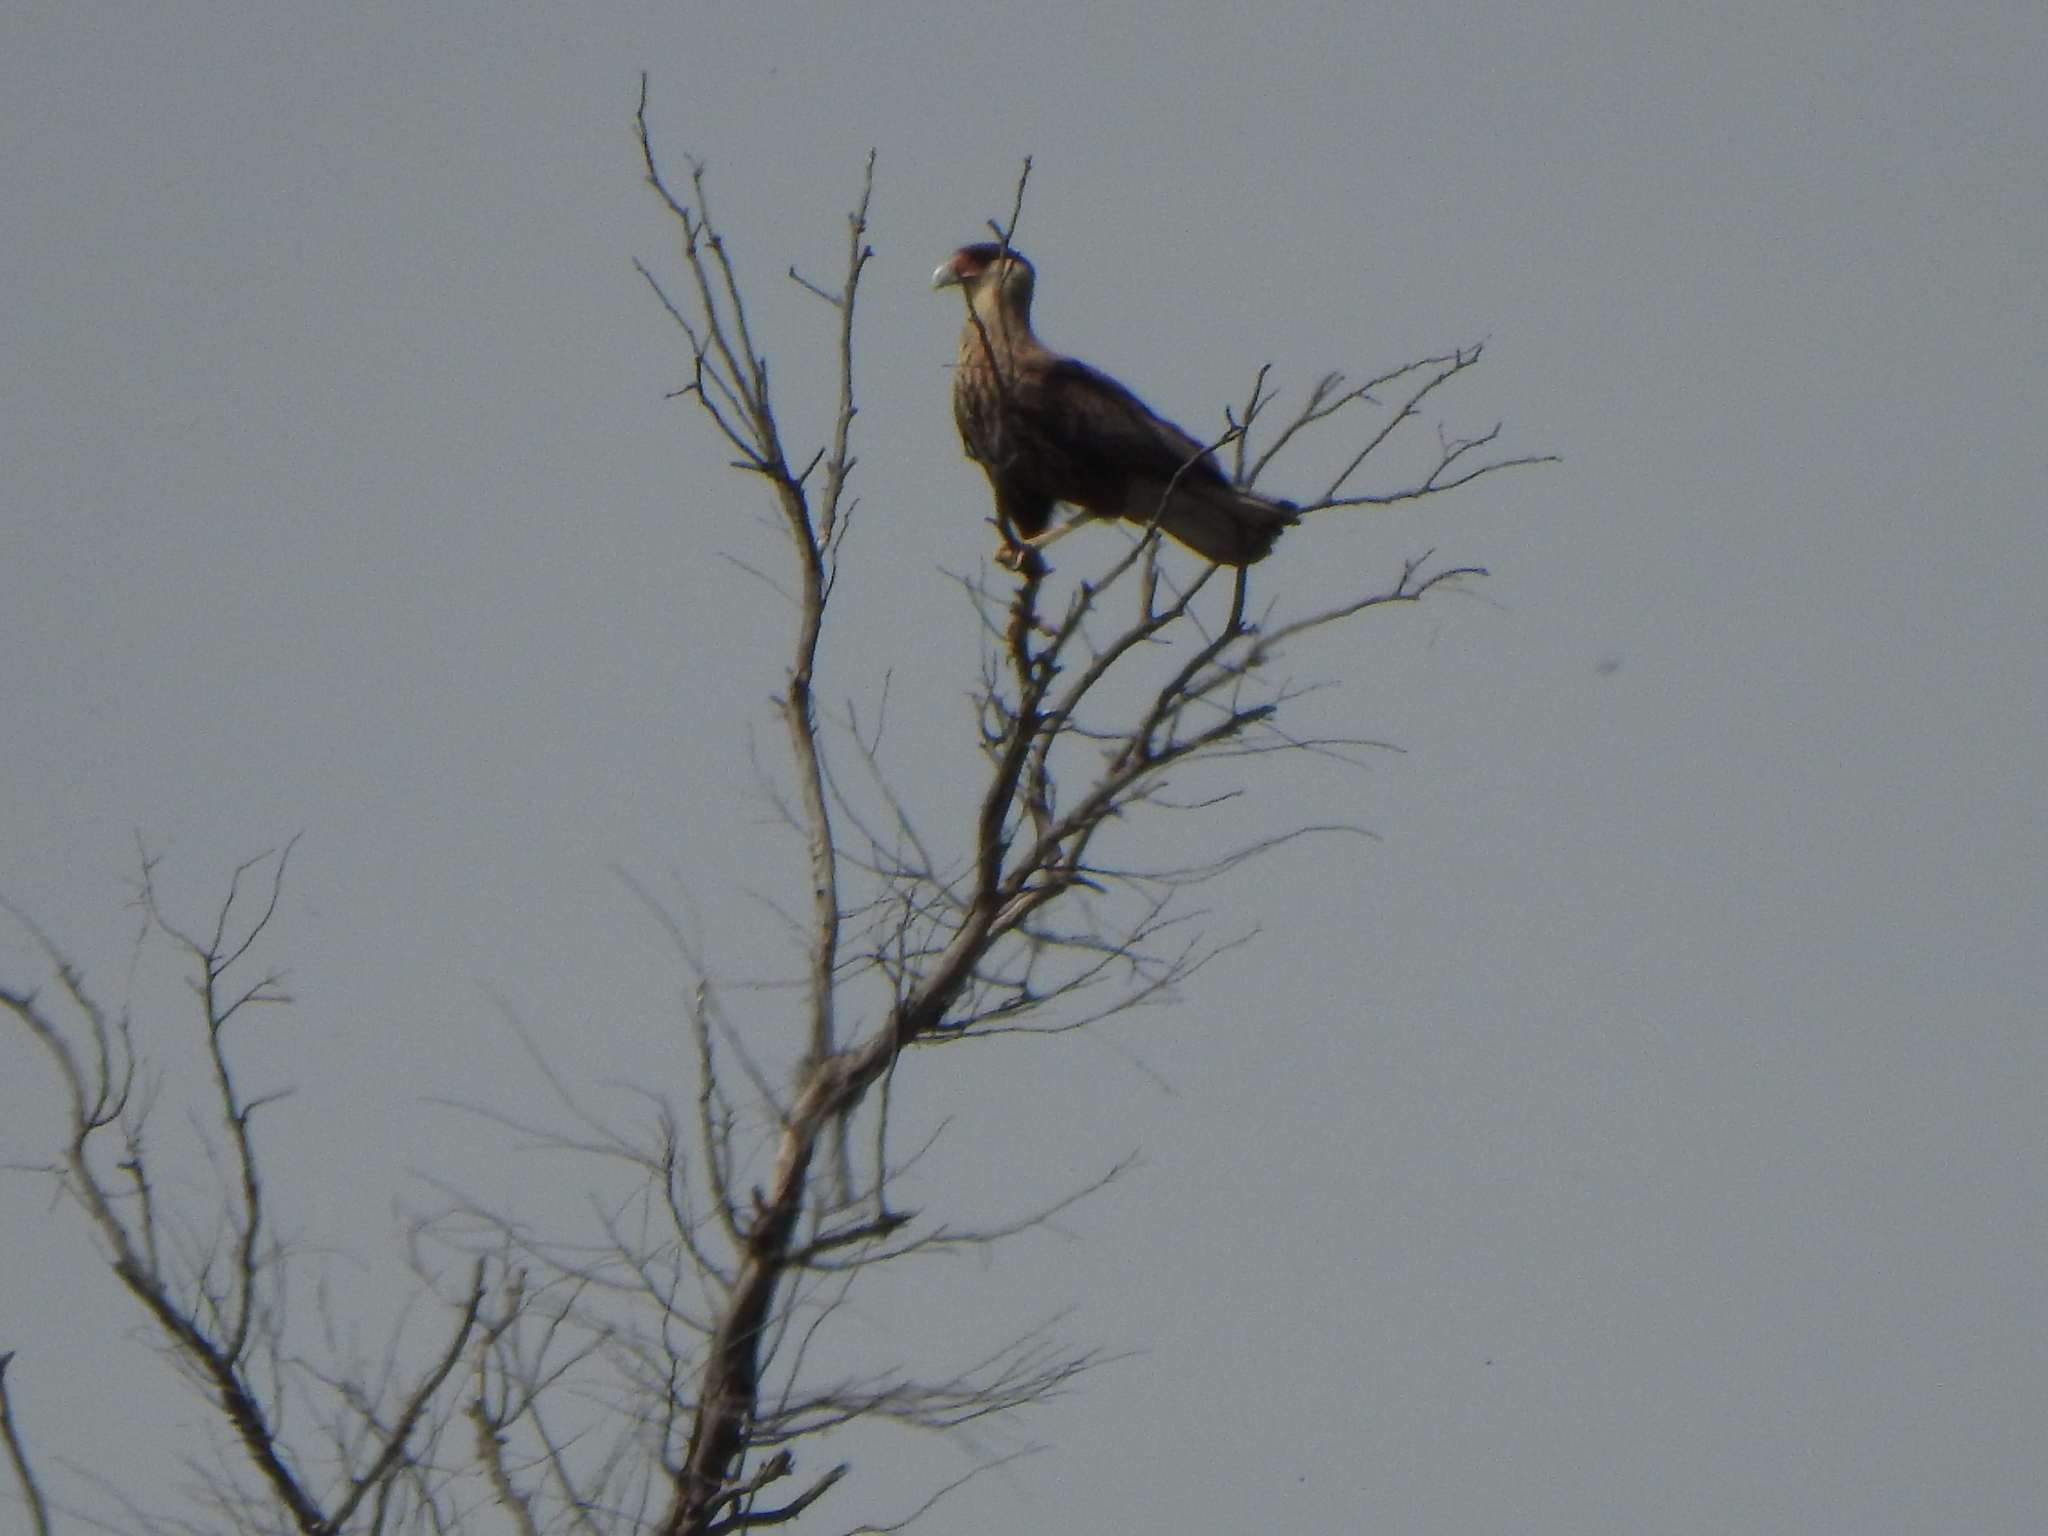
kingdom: Animalia
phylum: Chordata
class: Aves
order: Falconiformes
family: Falconidae
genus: Caracara
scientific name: Caracara plancus
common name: Southern caracara
